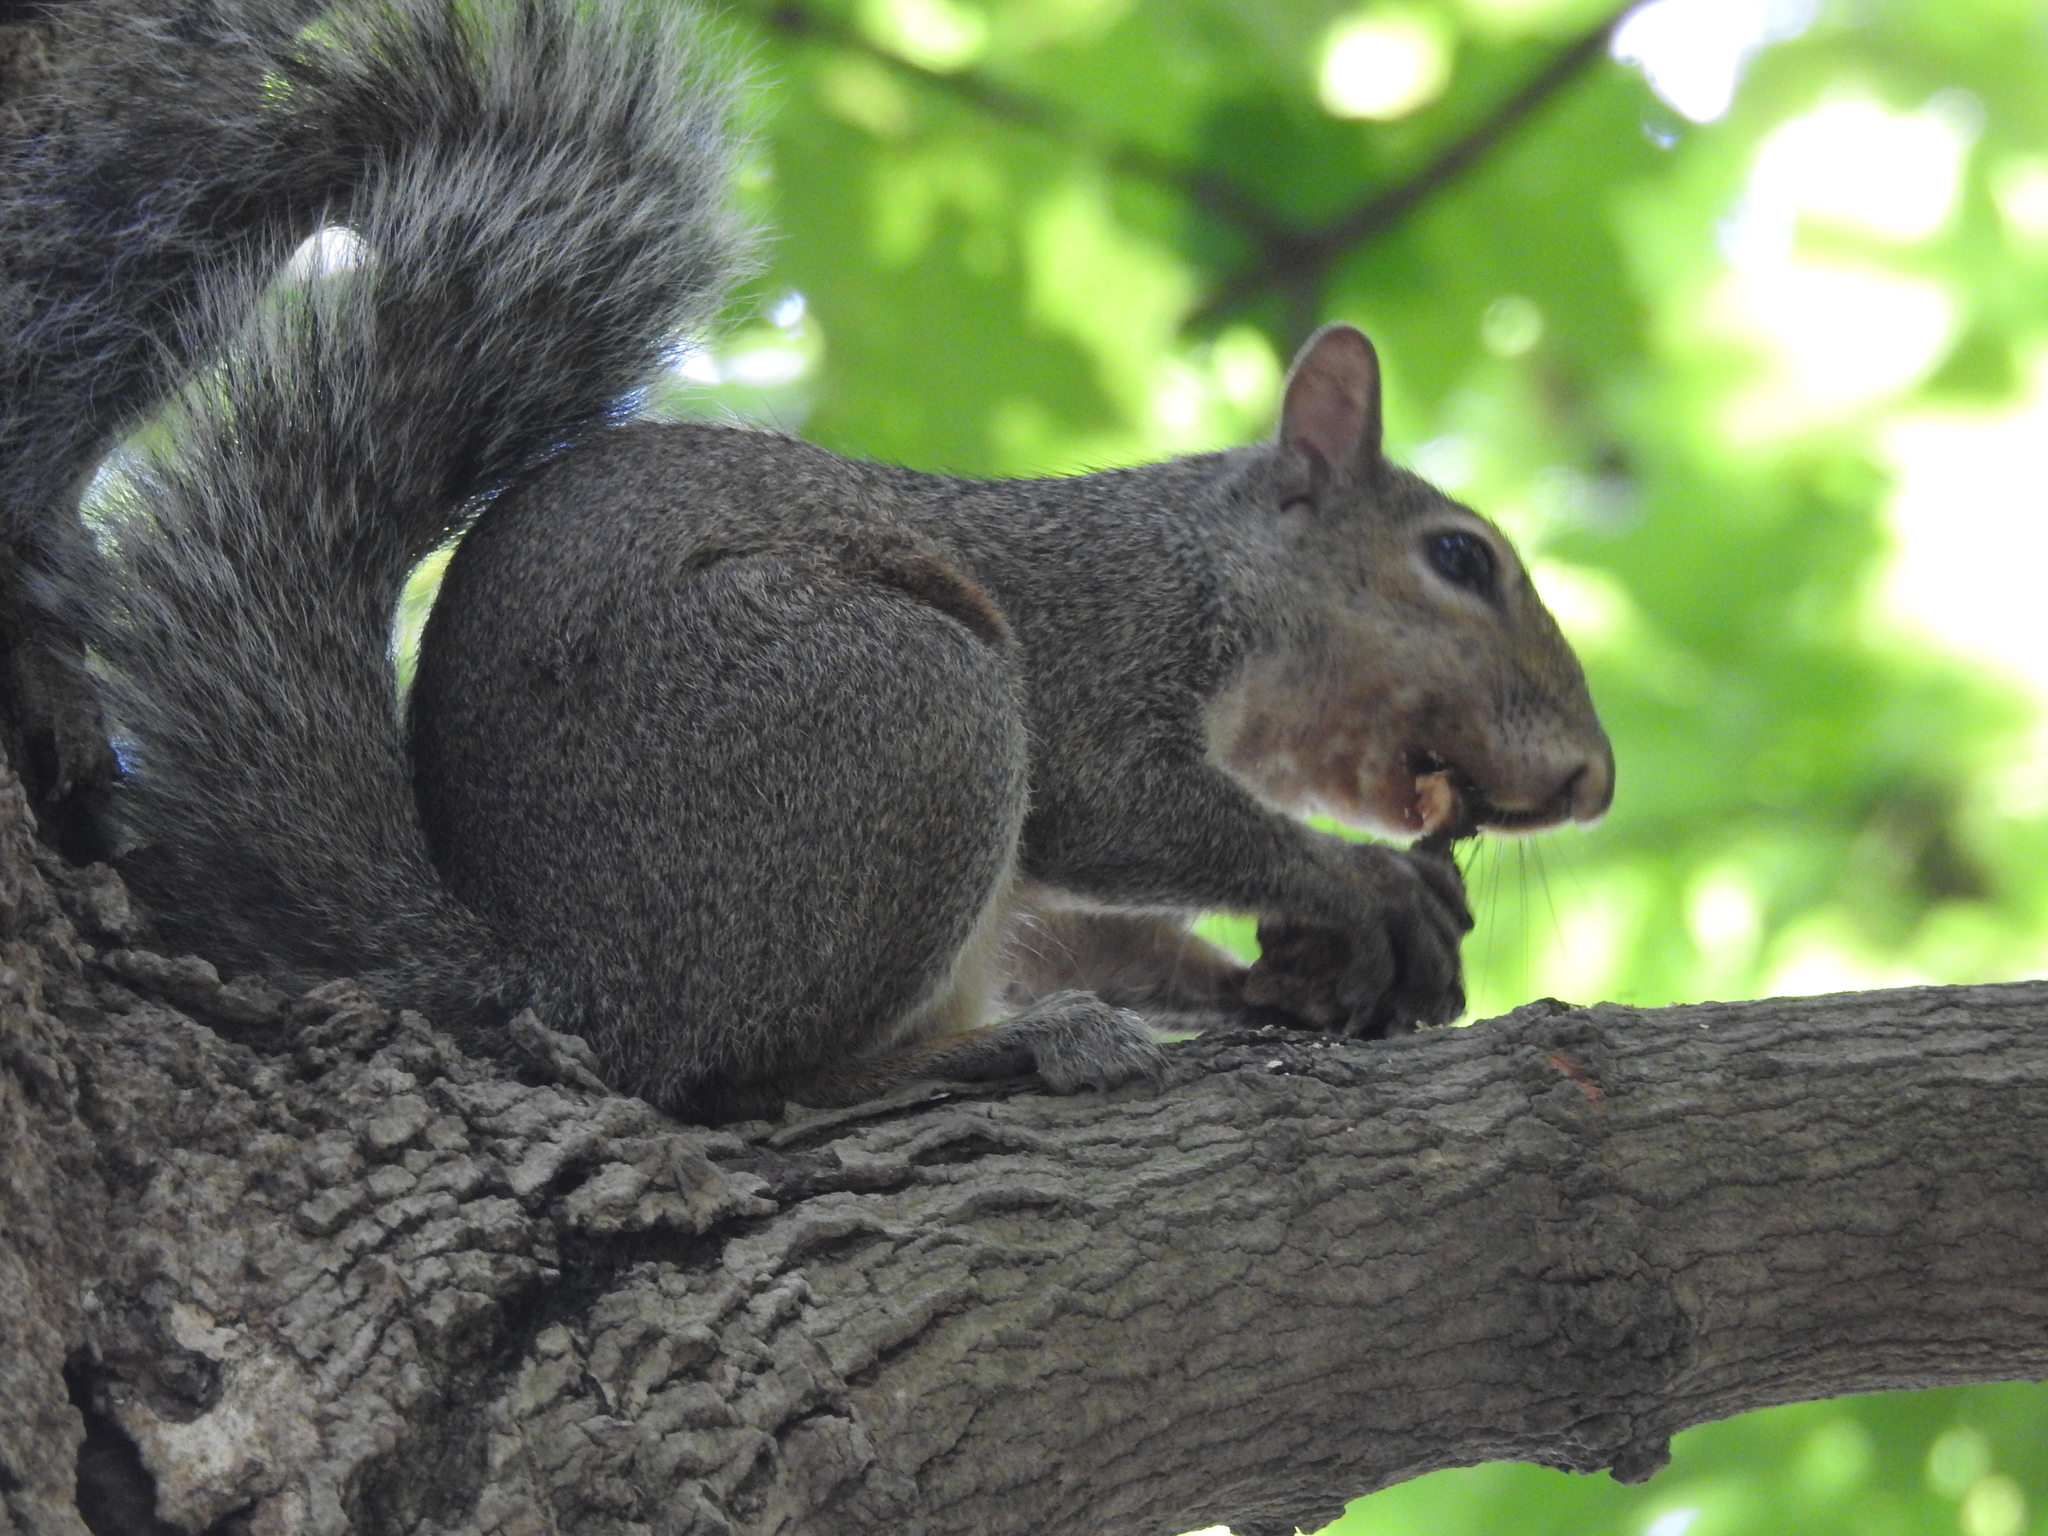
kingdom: Animalia
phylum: Chordata
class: Mammalia
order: Rodentia
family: Sciuridae
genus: Sciurus
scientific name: Sciurus carolinensis
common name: Eastern gray squirrel
